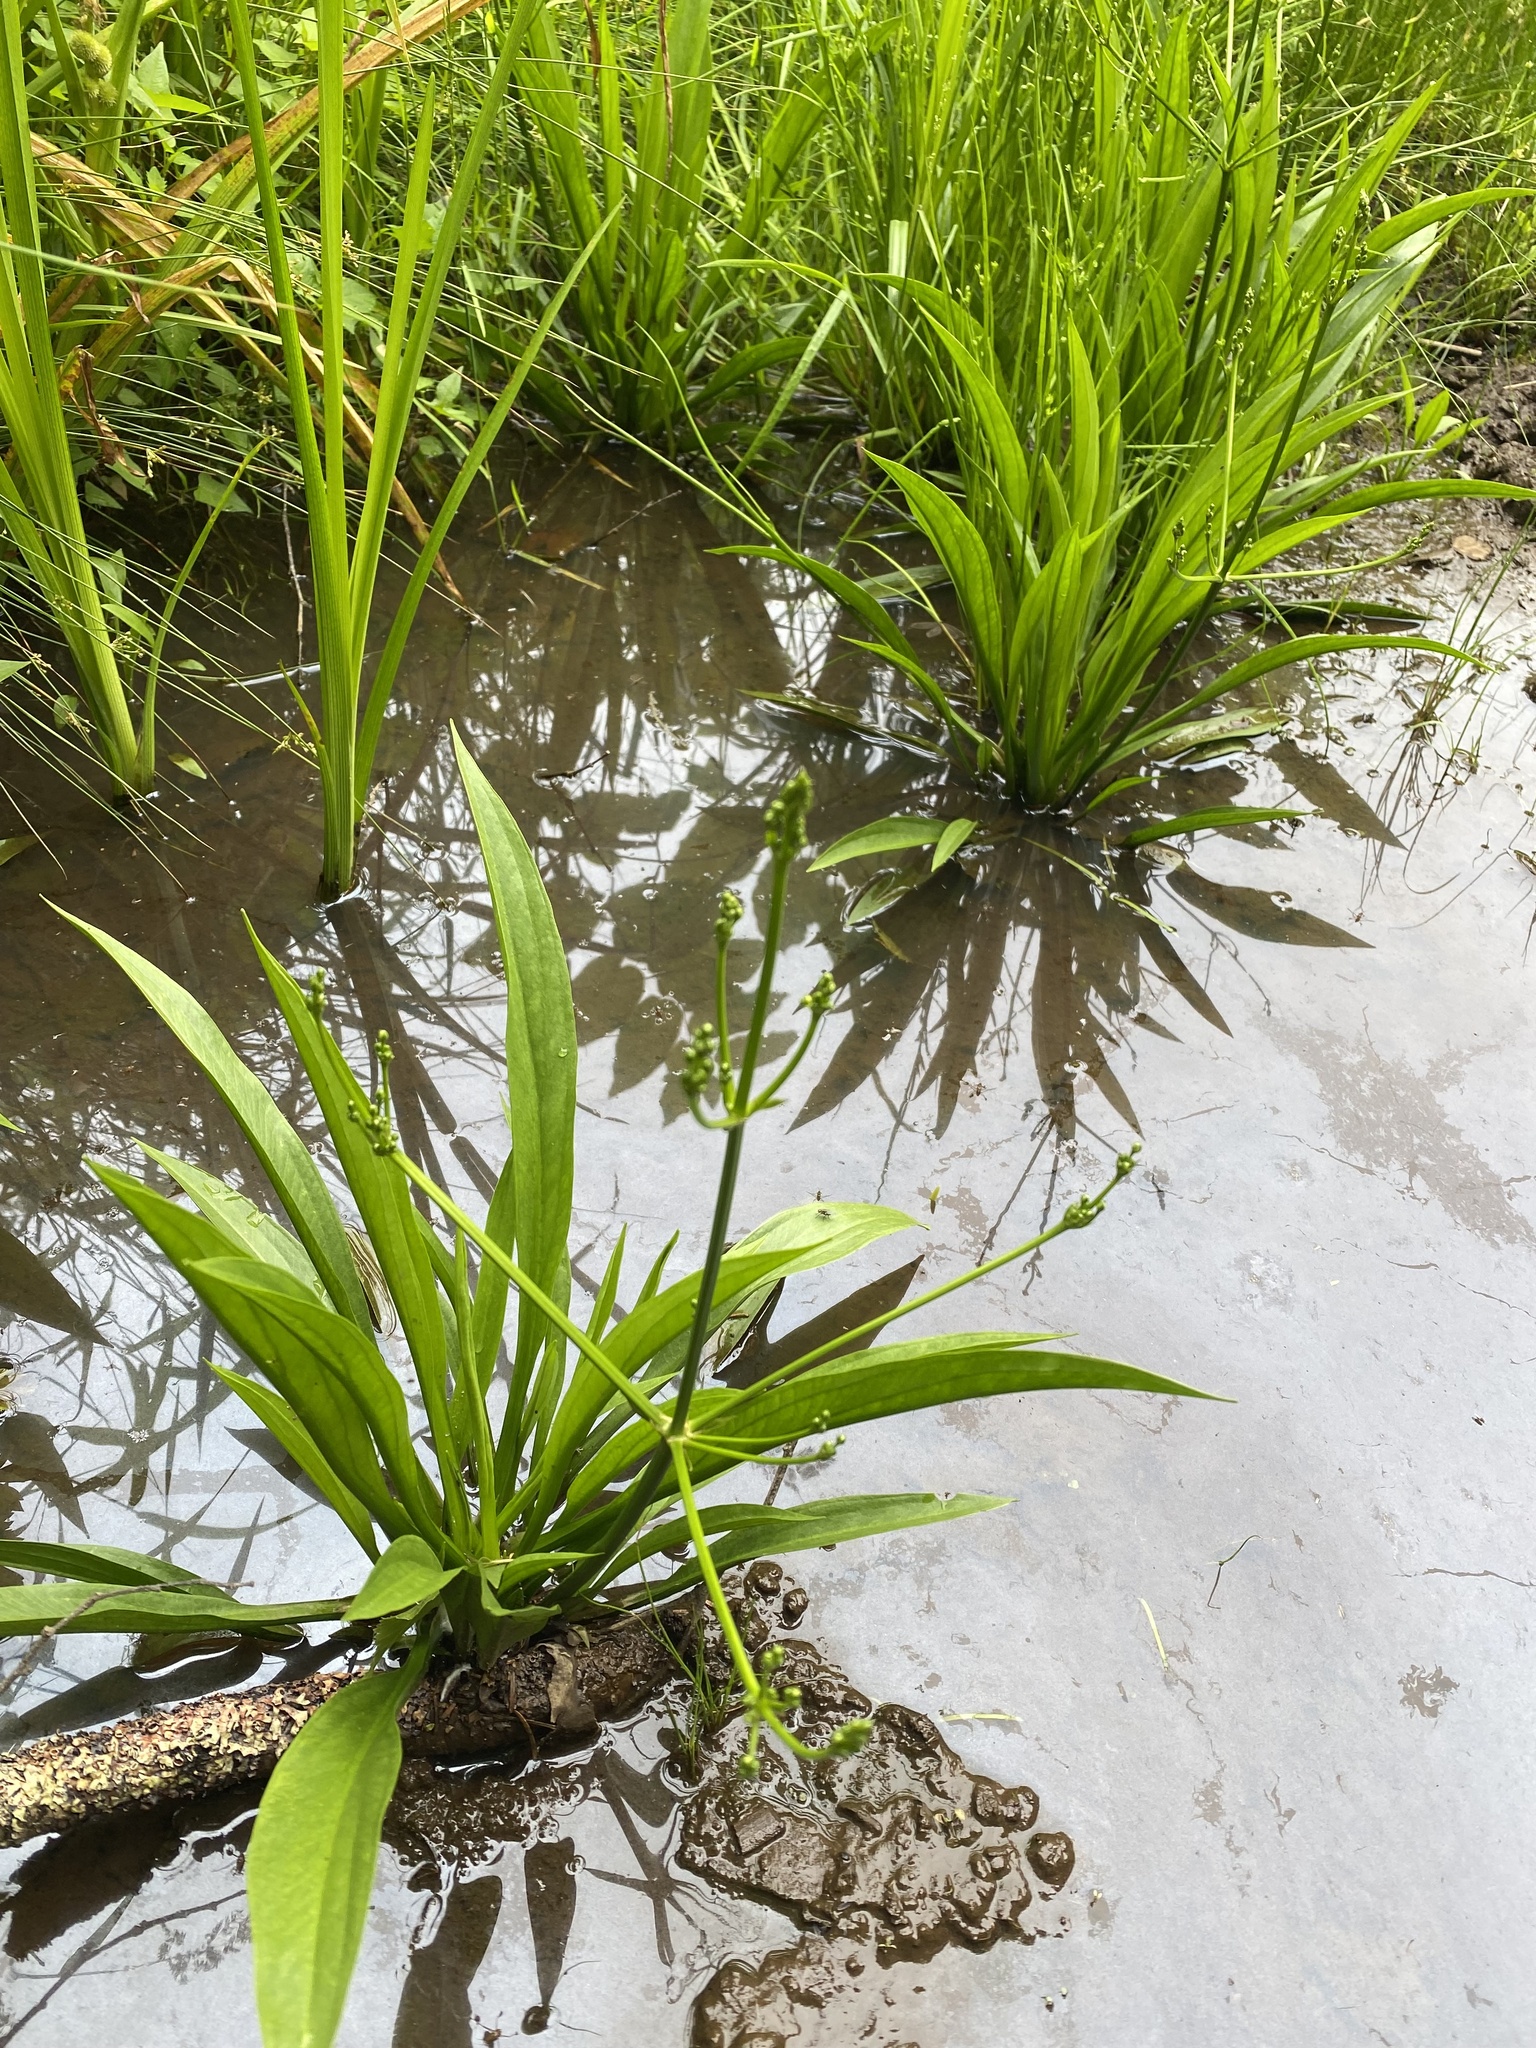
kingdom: Plantae
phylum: Tracheophyta
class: Liliopsida
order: Alismatales
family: Alismataceae
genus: Alisma
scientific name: Alisma canaliculatum
